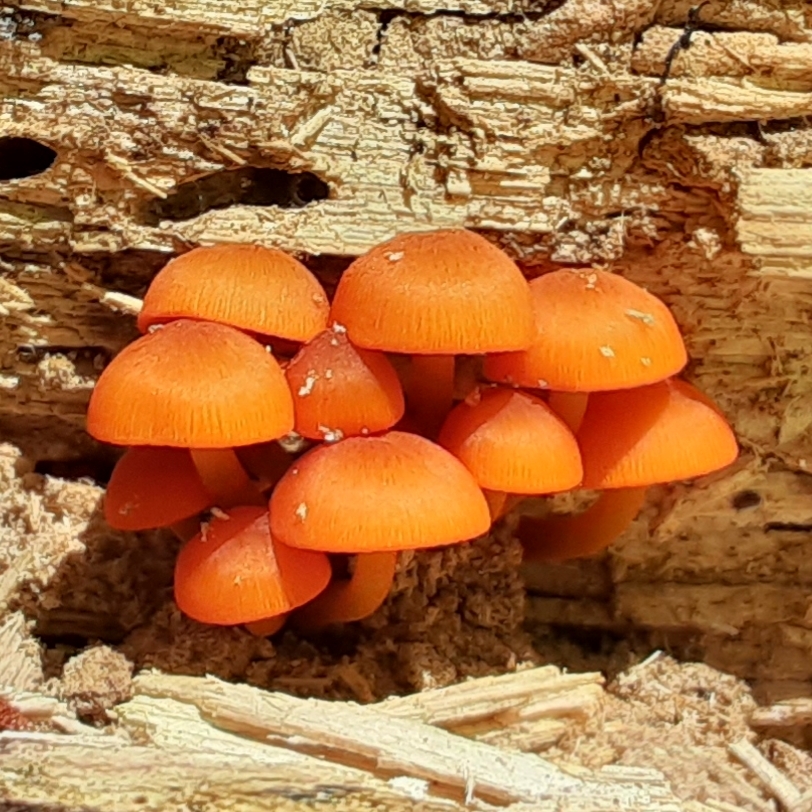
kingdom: Fungi
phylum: Basidiomycota
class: Agaricomycetes
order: Agaricales
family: Mycenaceae
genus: Mycena
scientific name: Mycena leaiana
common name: Orange mycena
